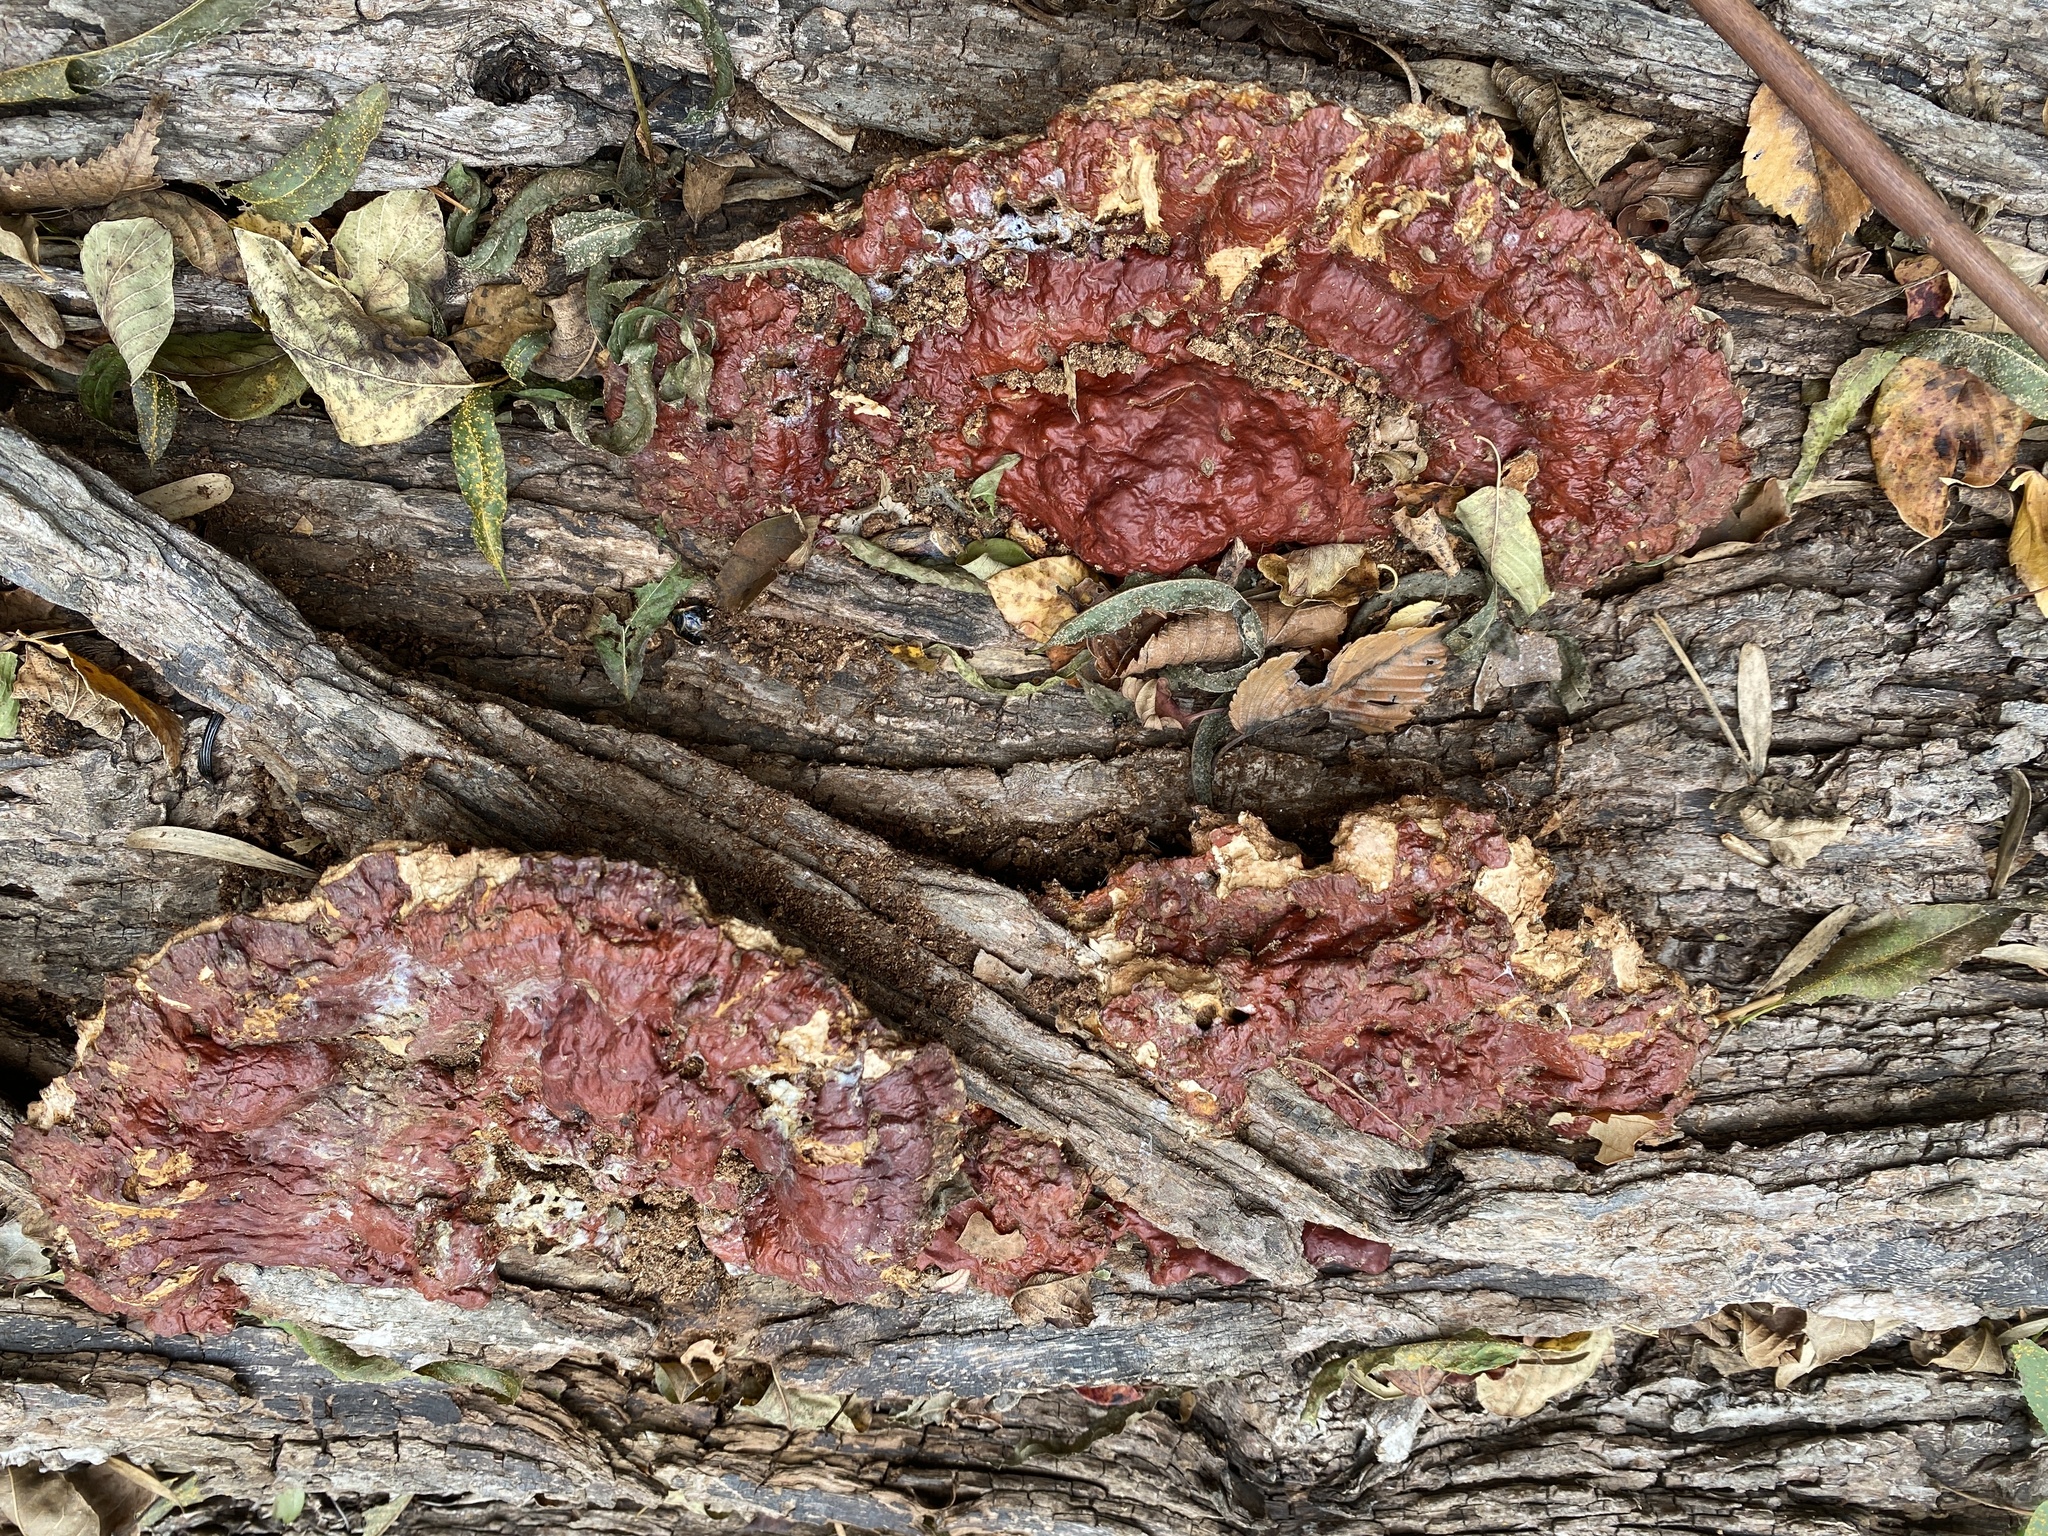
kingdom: Fungi
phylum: Basidiomycota
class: Agaricomycetes
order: Polyporales
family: Polyporaceae
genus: Ganoderma
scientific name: Ganoderma resinaceum
